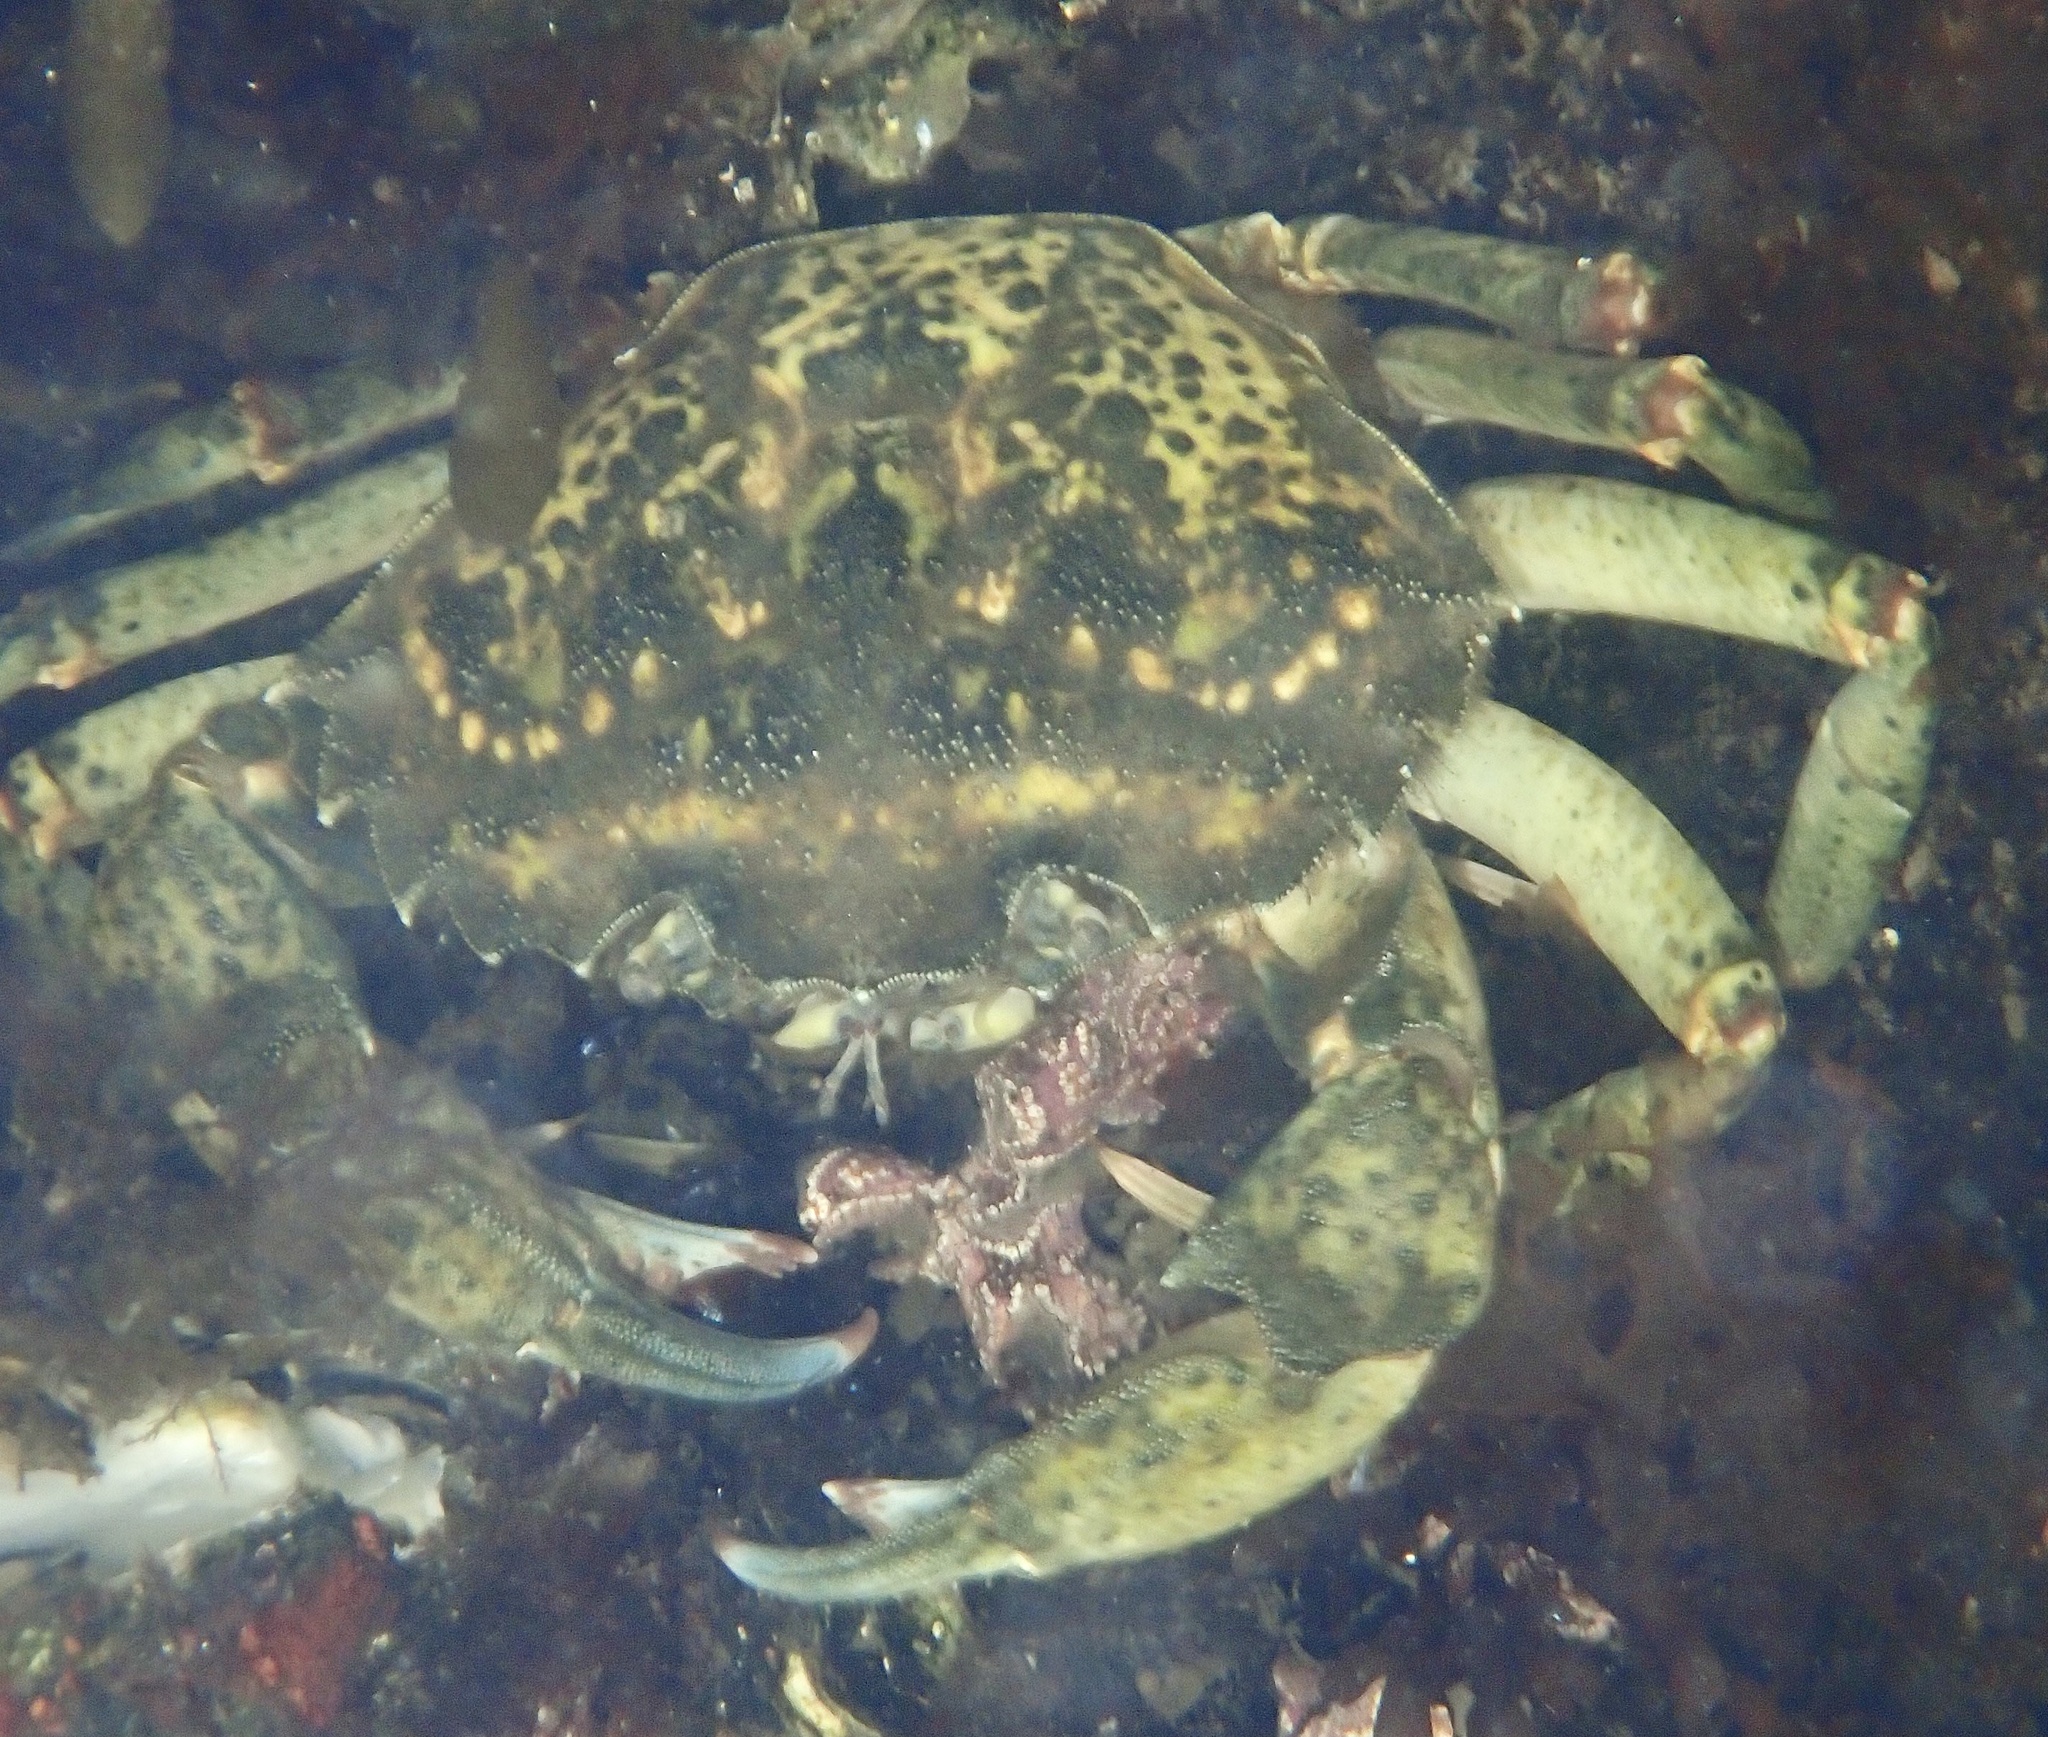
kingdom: Animalia
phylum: Arthropoda
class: Malacostraca
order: Decapoda
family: Carcinidae
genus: Carcinus
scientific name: Carcinus maenas
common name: European green crab
